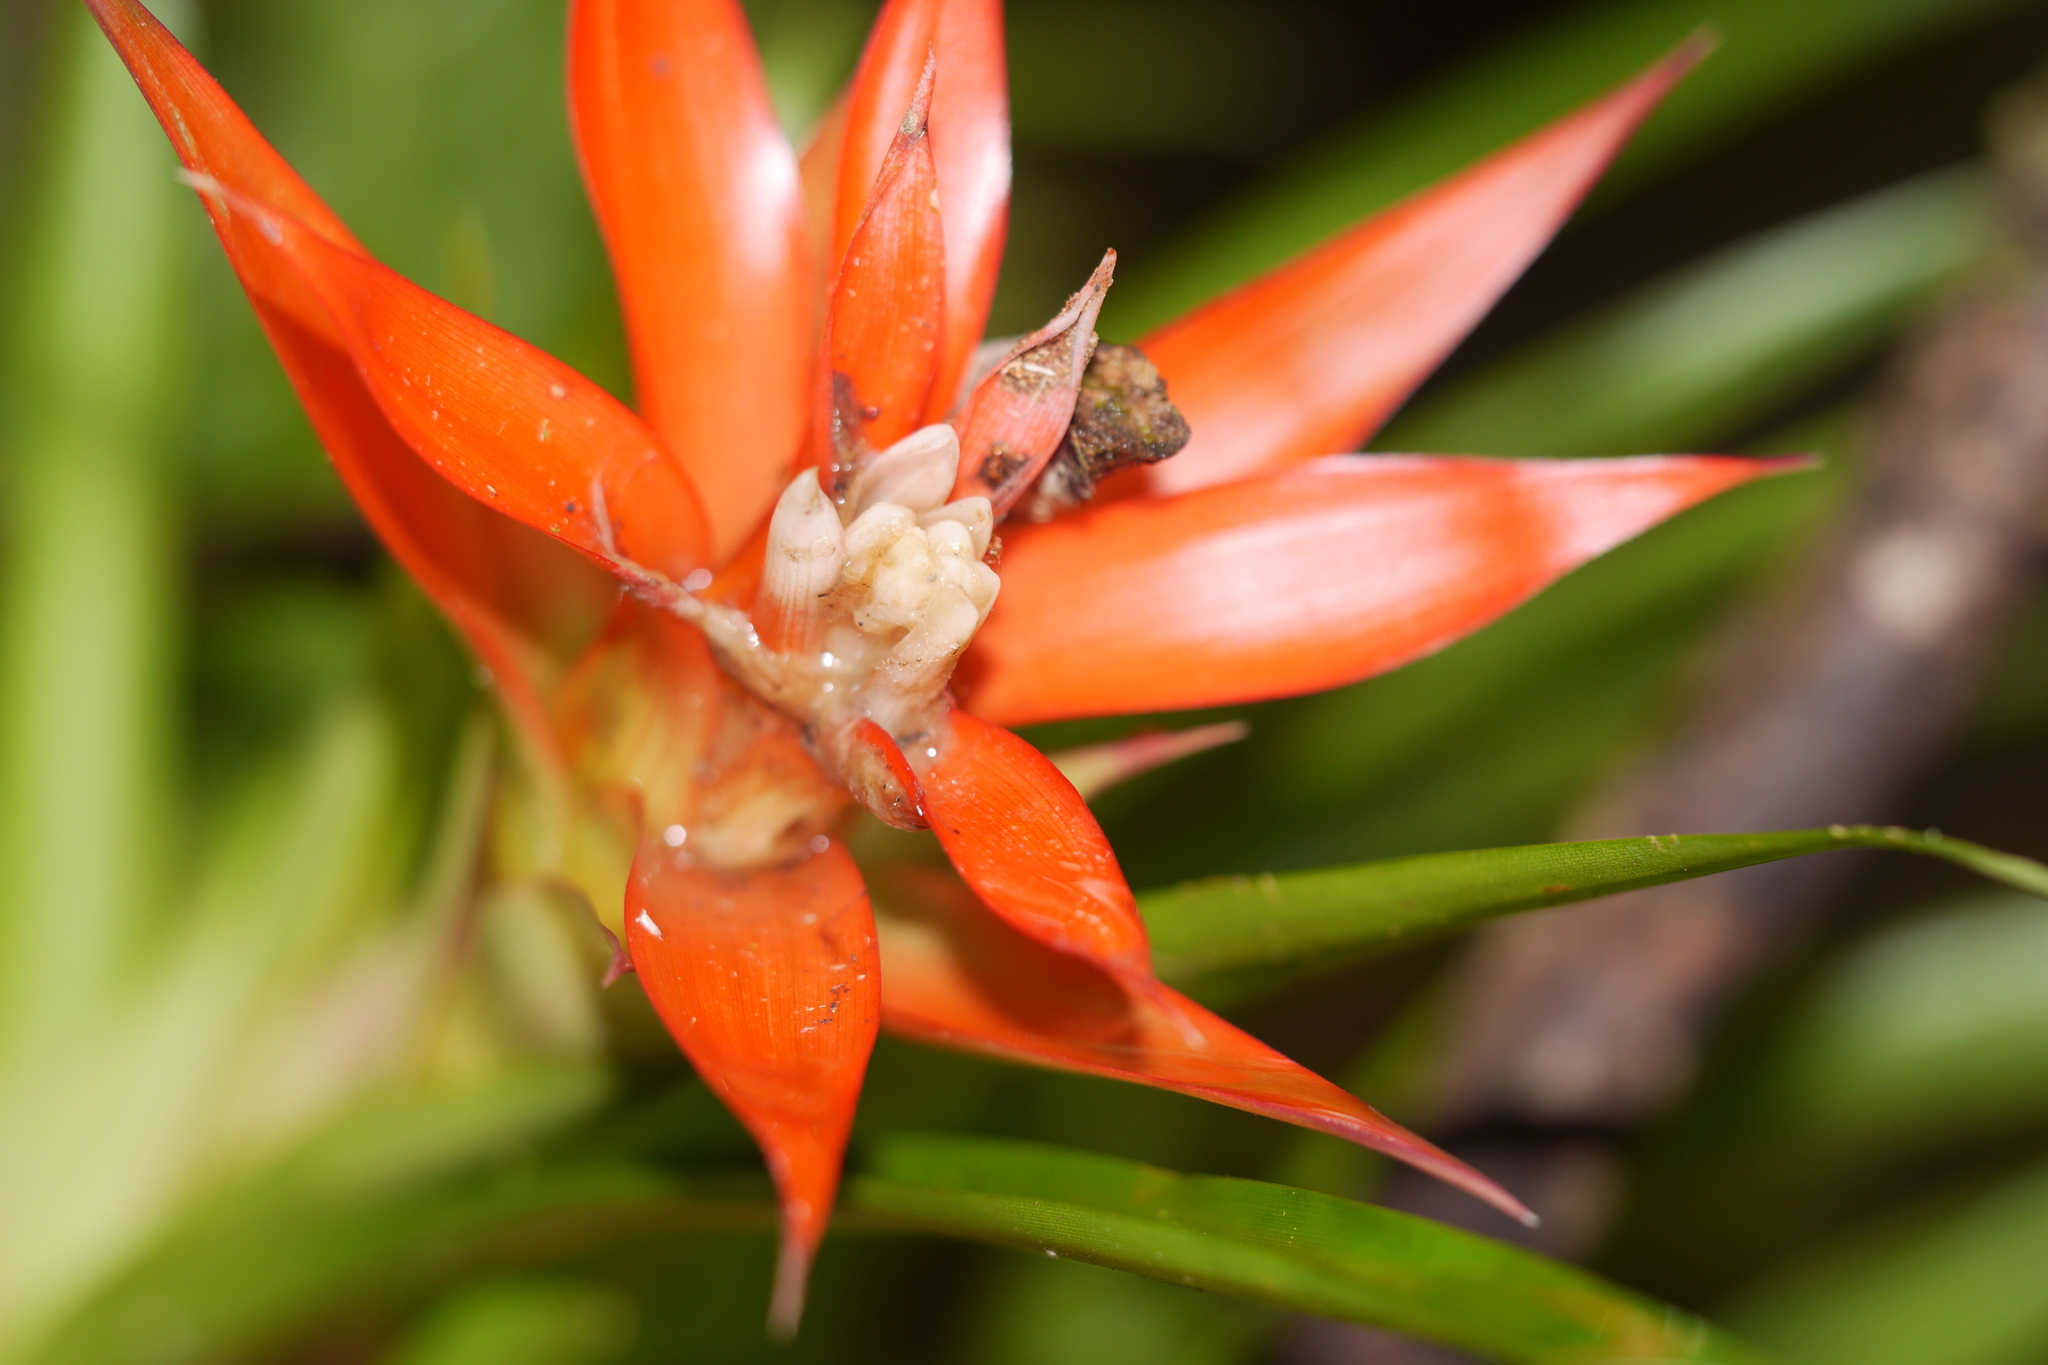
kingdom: Plantae
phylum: Tracheophyta
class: Liliopsida
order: Poales
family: Bromeliaceae
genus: Guzmania
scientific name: Guzmania lingulata
